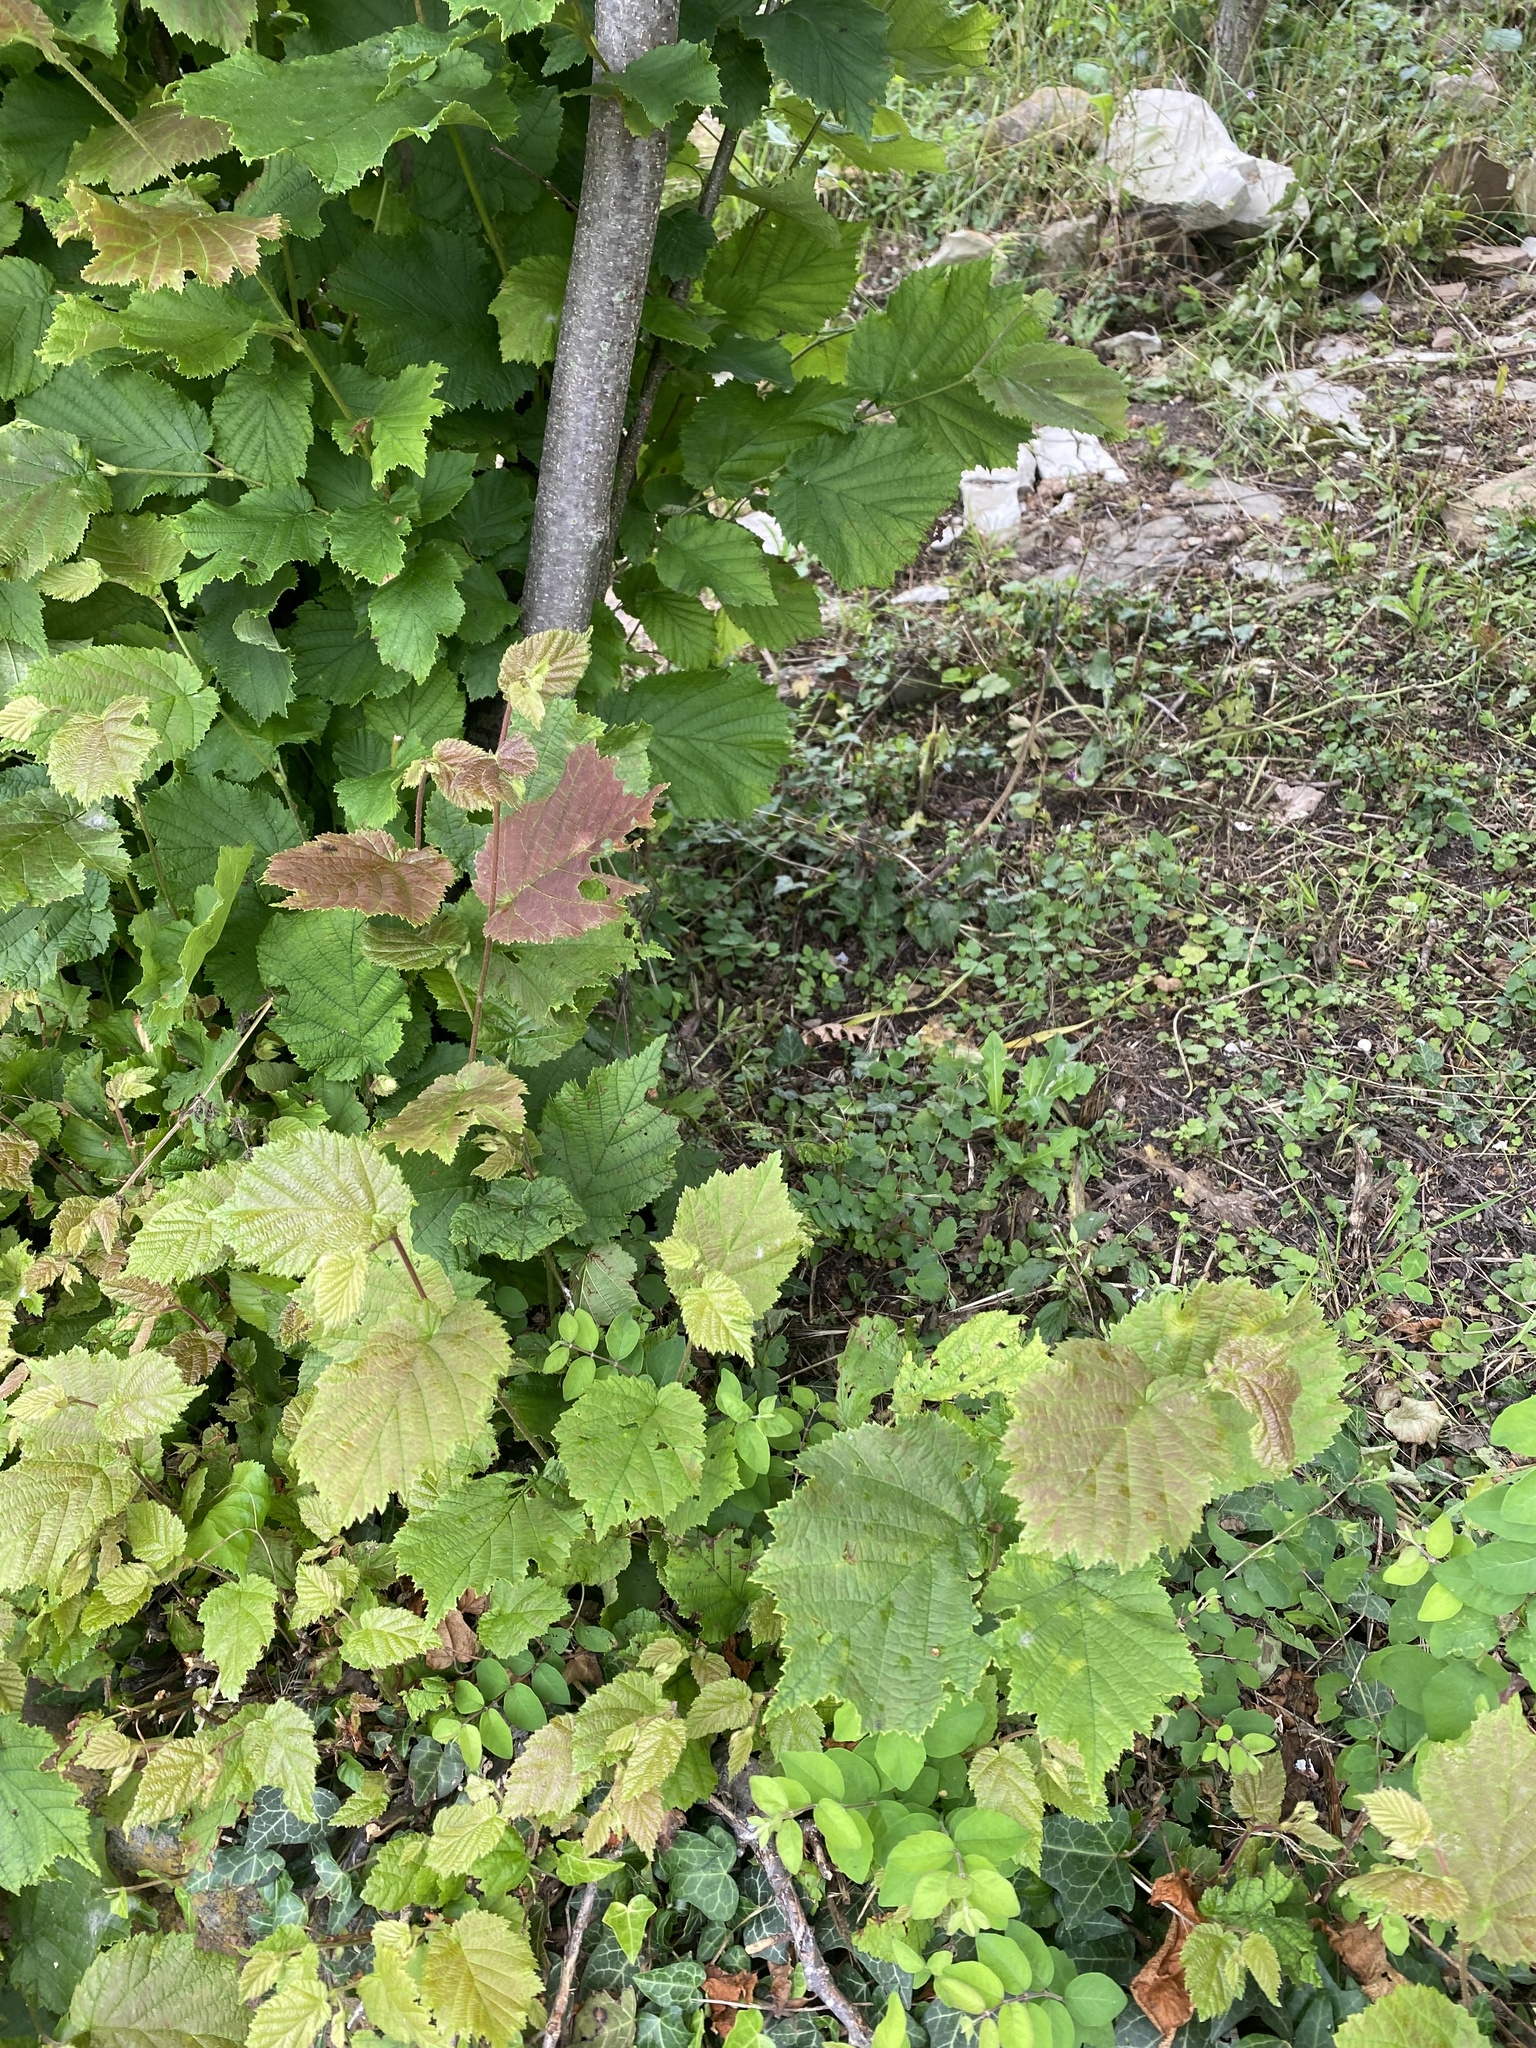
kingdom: Plantae
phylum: Tracheophyta
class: Magnoliopsida
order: Fagales
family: Betulaceae
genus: Corylus
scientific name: Corylus avellana
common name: European hazel
